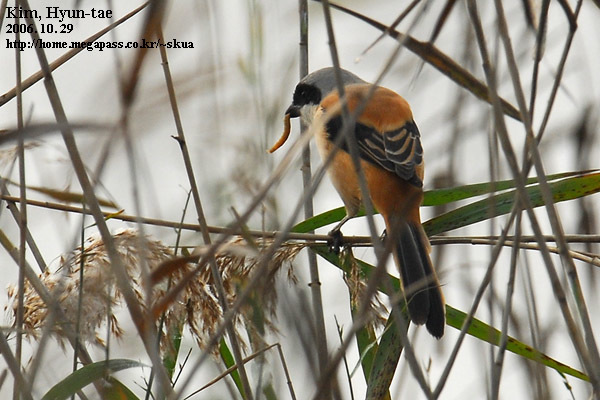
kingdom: Animalia
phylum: Chordata
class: Aves
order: Passeriformes
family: Laniidae
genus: Lanius
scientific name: Lanius schach
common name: Long-tailed shrike
